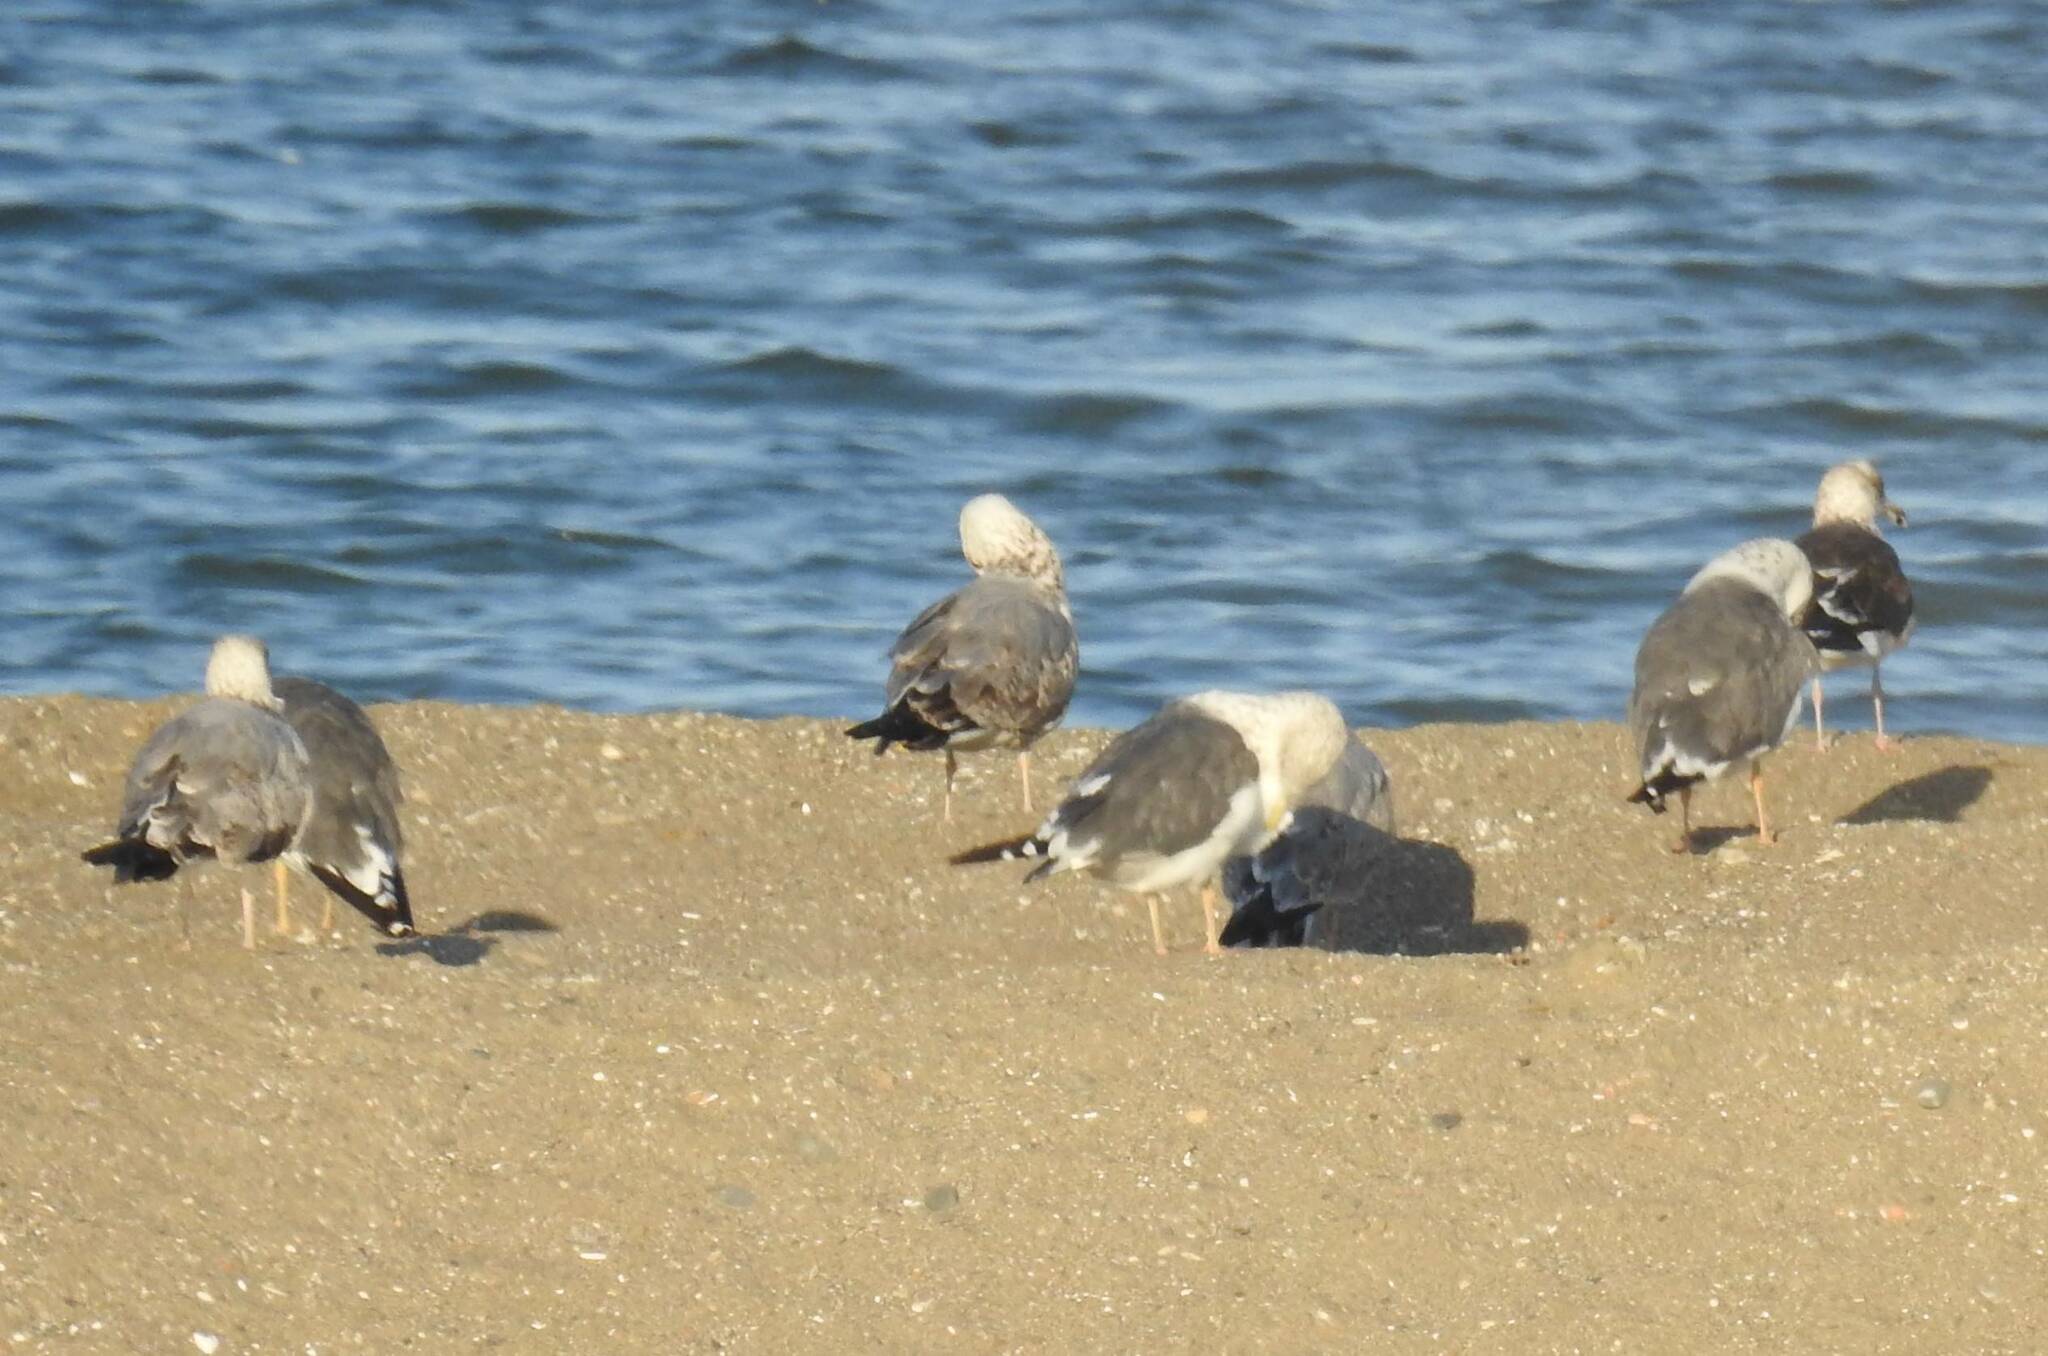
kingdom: Animalia
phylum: Chordata
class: Aves
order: Charadriiformes
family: Laridae
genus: Larus
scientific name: Larus fuscus
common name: Lesser black-backed gull
